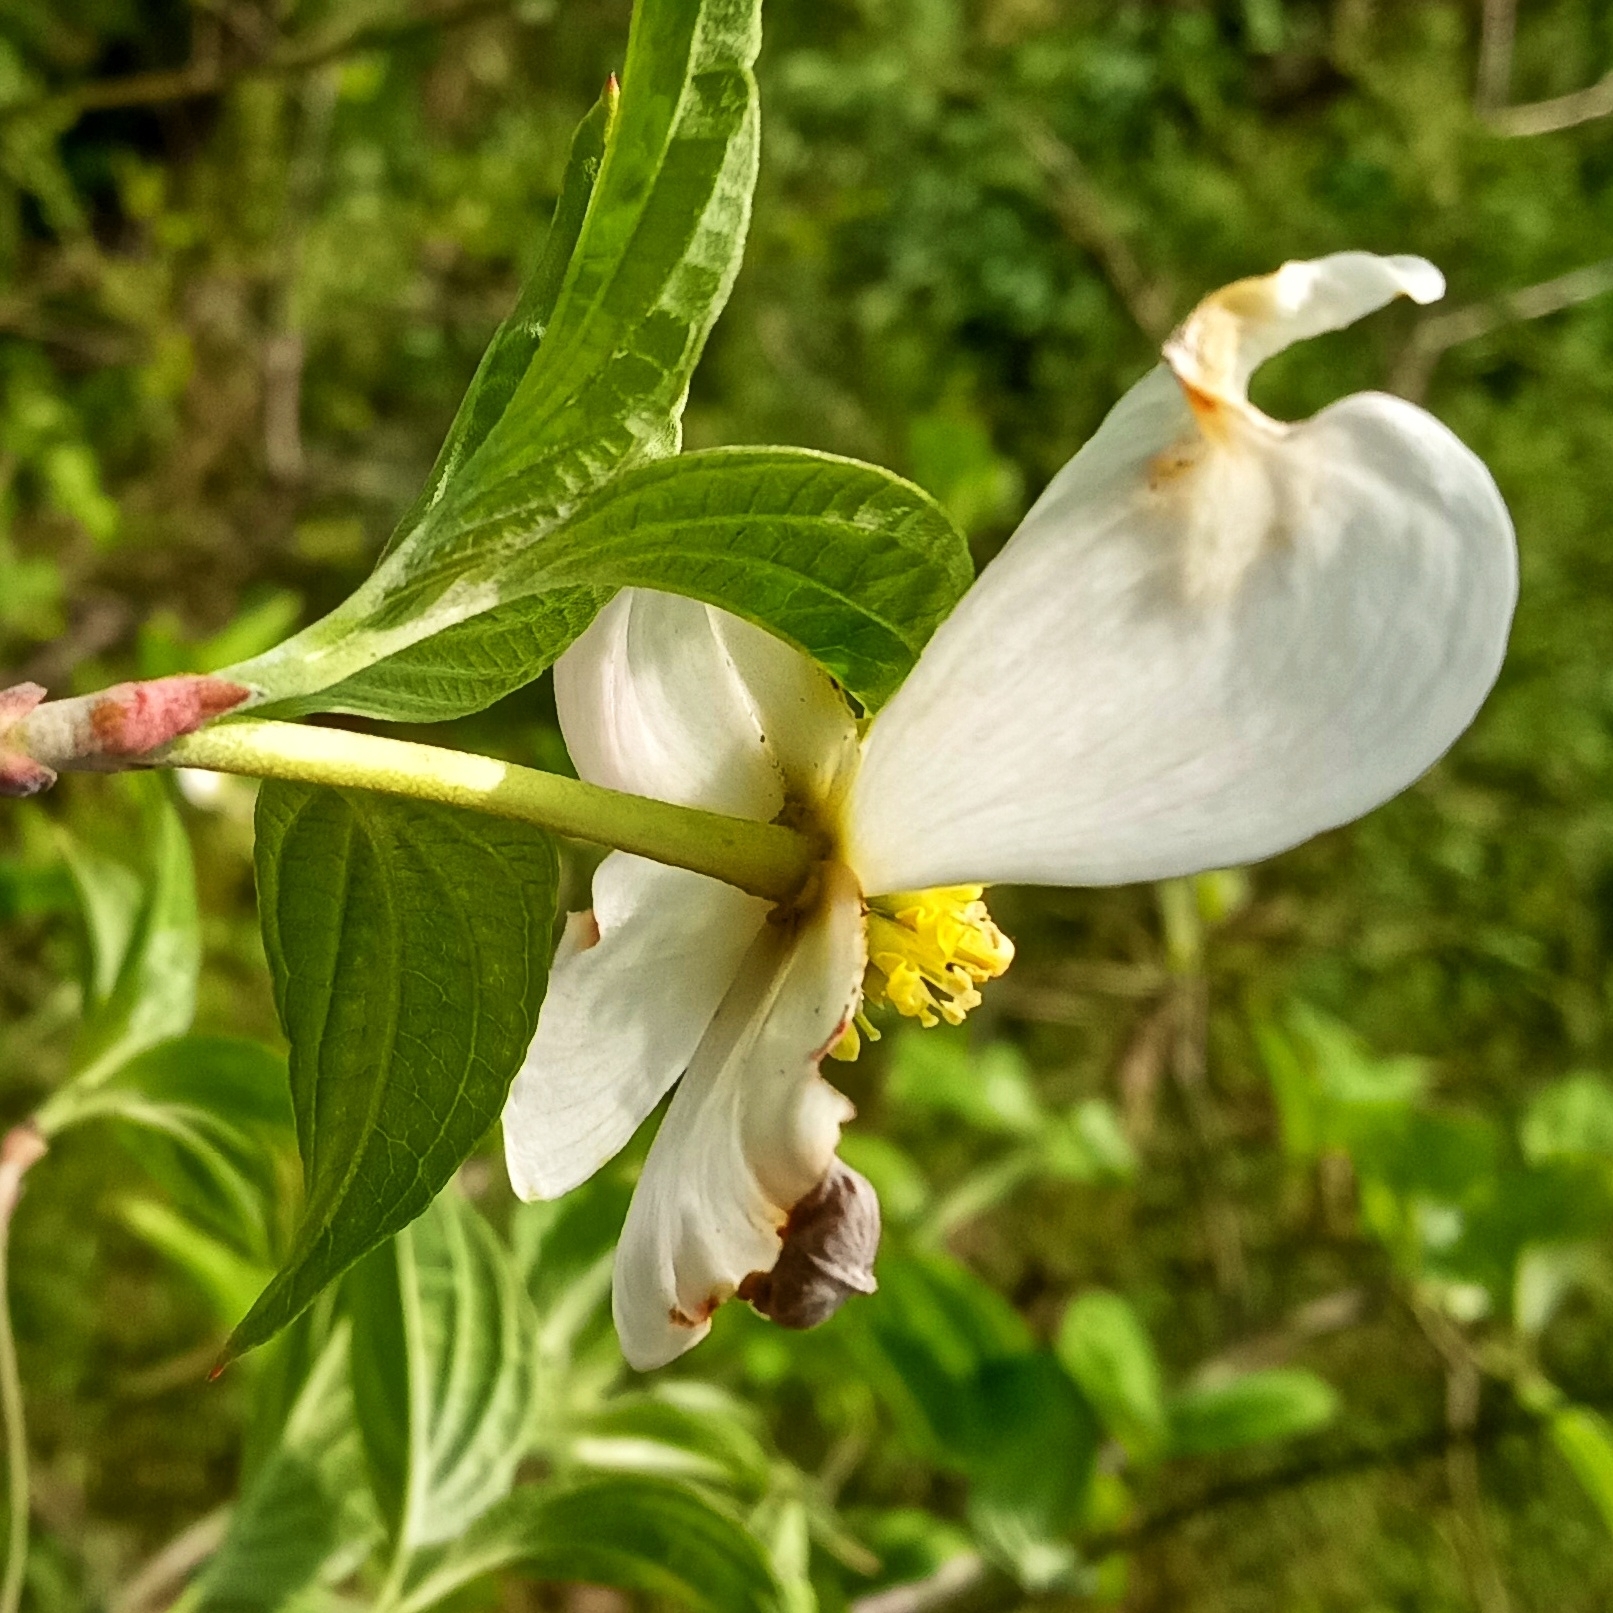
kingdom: Plantae
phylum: Tracheophyta
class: Magnoliopsida
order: Cornales
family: Cornaceae
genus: Cornus
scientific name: Cornus florida
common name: Flowering dogwood
